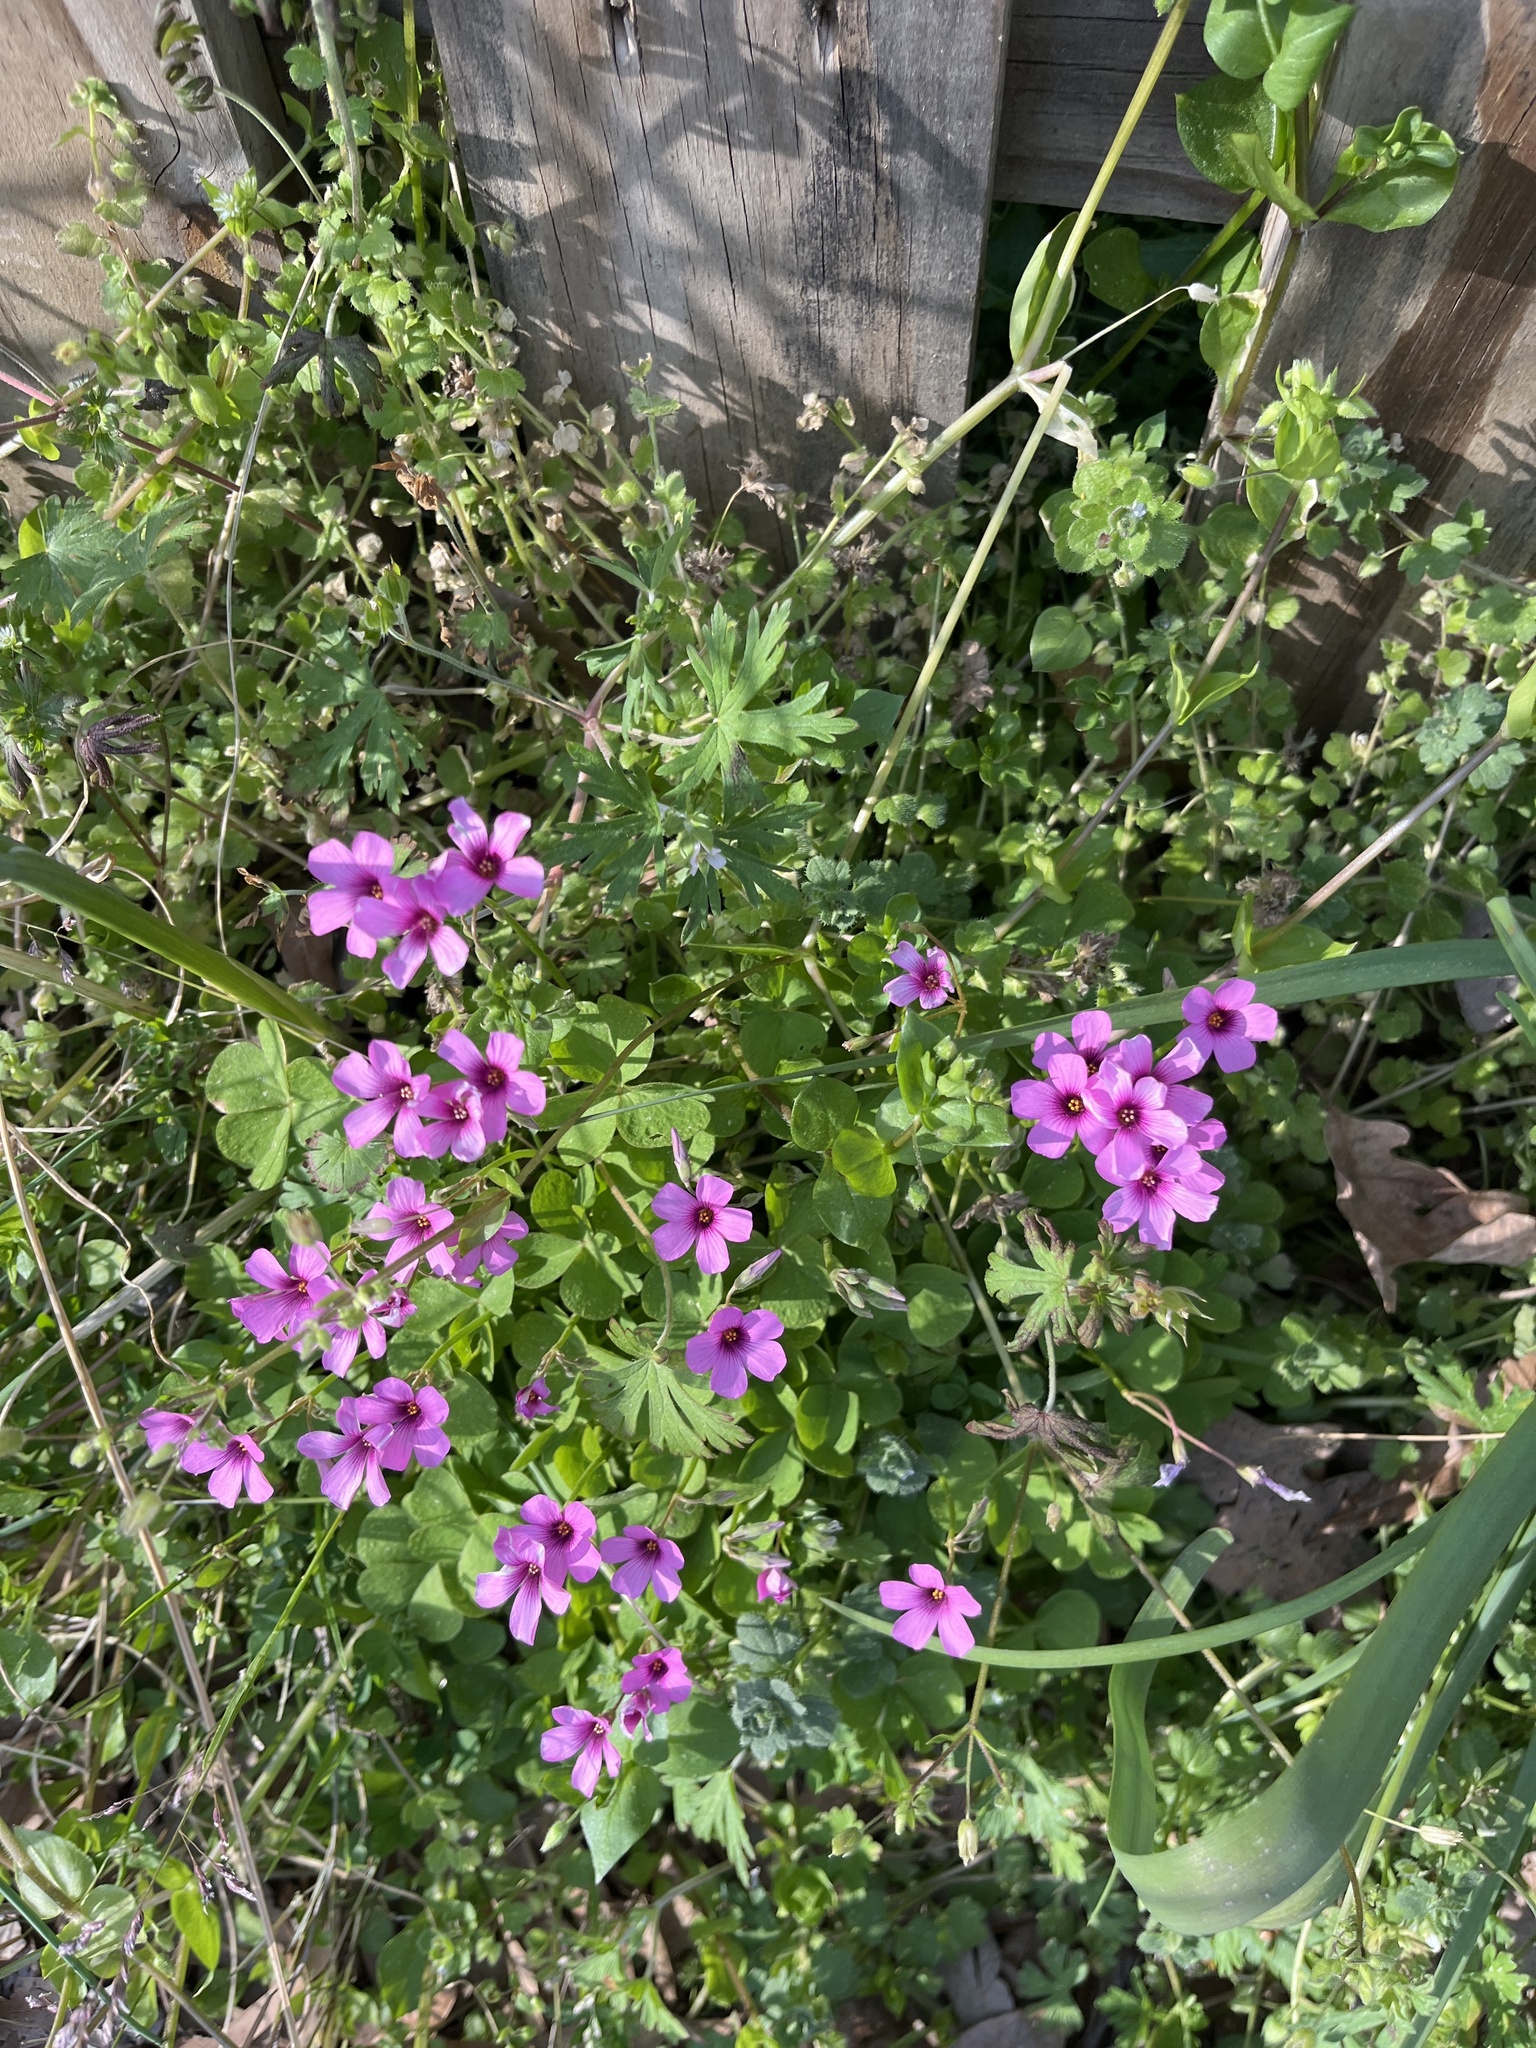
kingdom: Plantae
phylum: Tracheophyta
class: Magnoliopsida
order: Oxalidales
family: Oxalidaceae
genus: Oxalis
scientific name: Oxalis articulata
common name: Pink-sorrel
